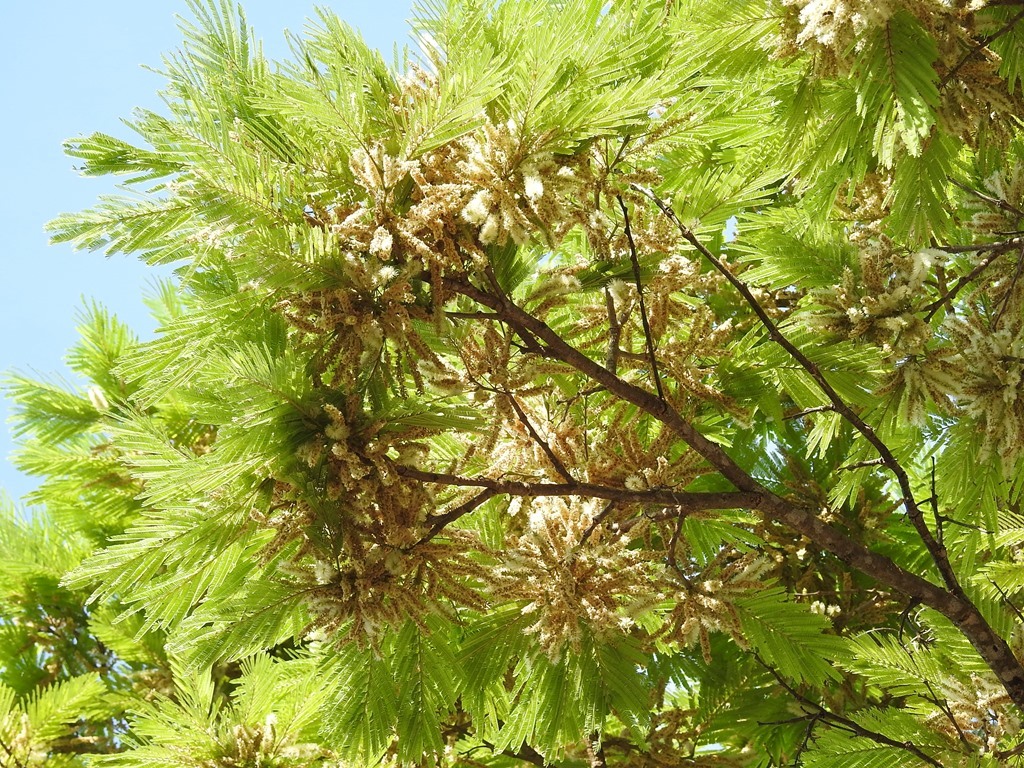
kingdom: Plantae
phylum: Tracheophyta
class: Magnoliopsida
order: Fabales
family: Fabaceae
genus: Mariosousa
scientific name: Mariosousa coulteri
